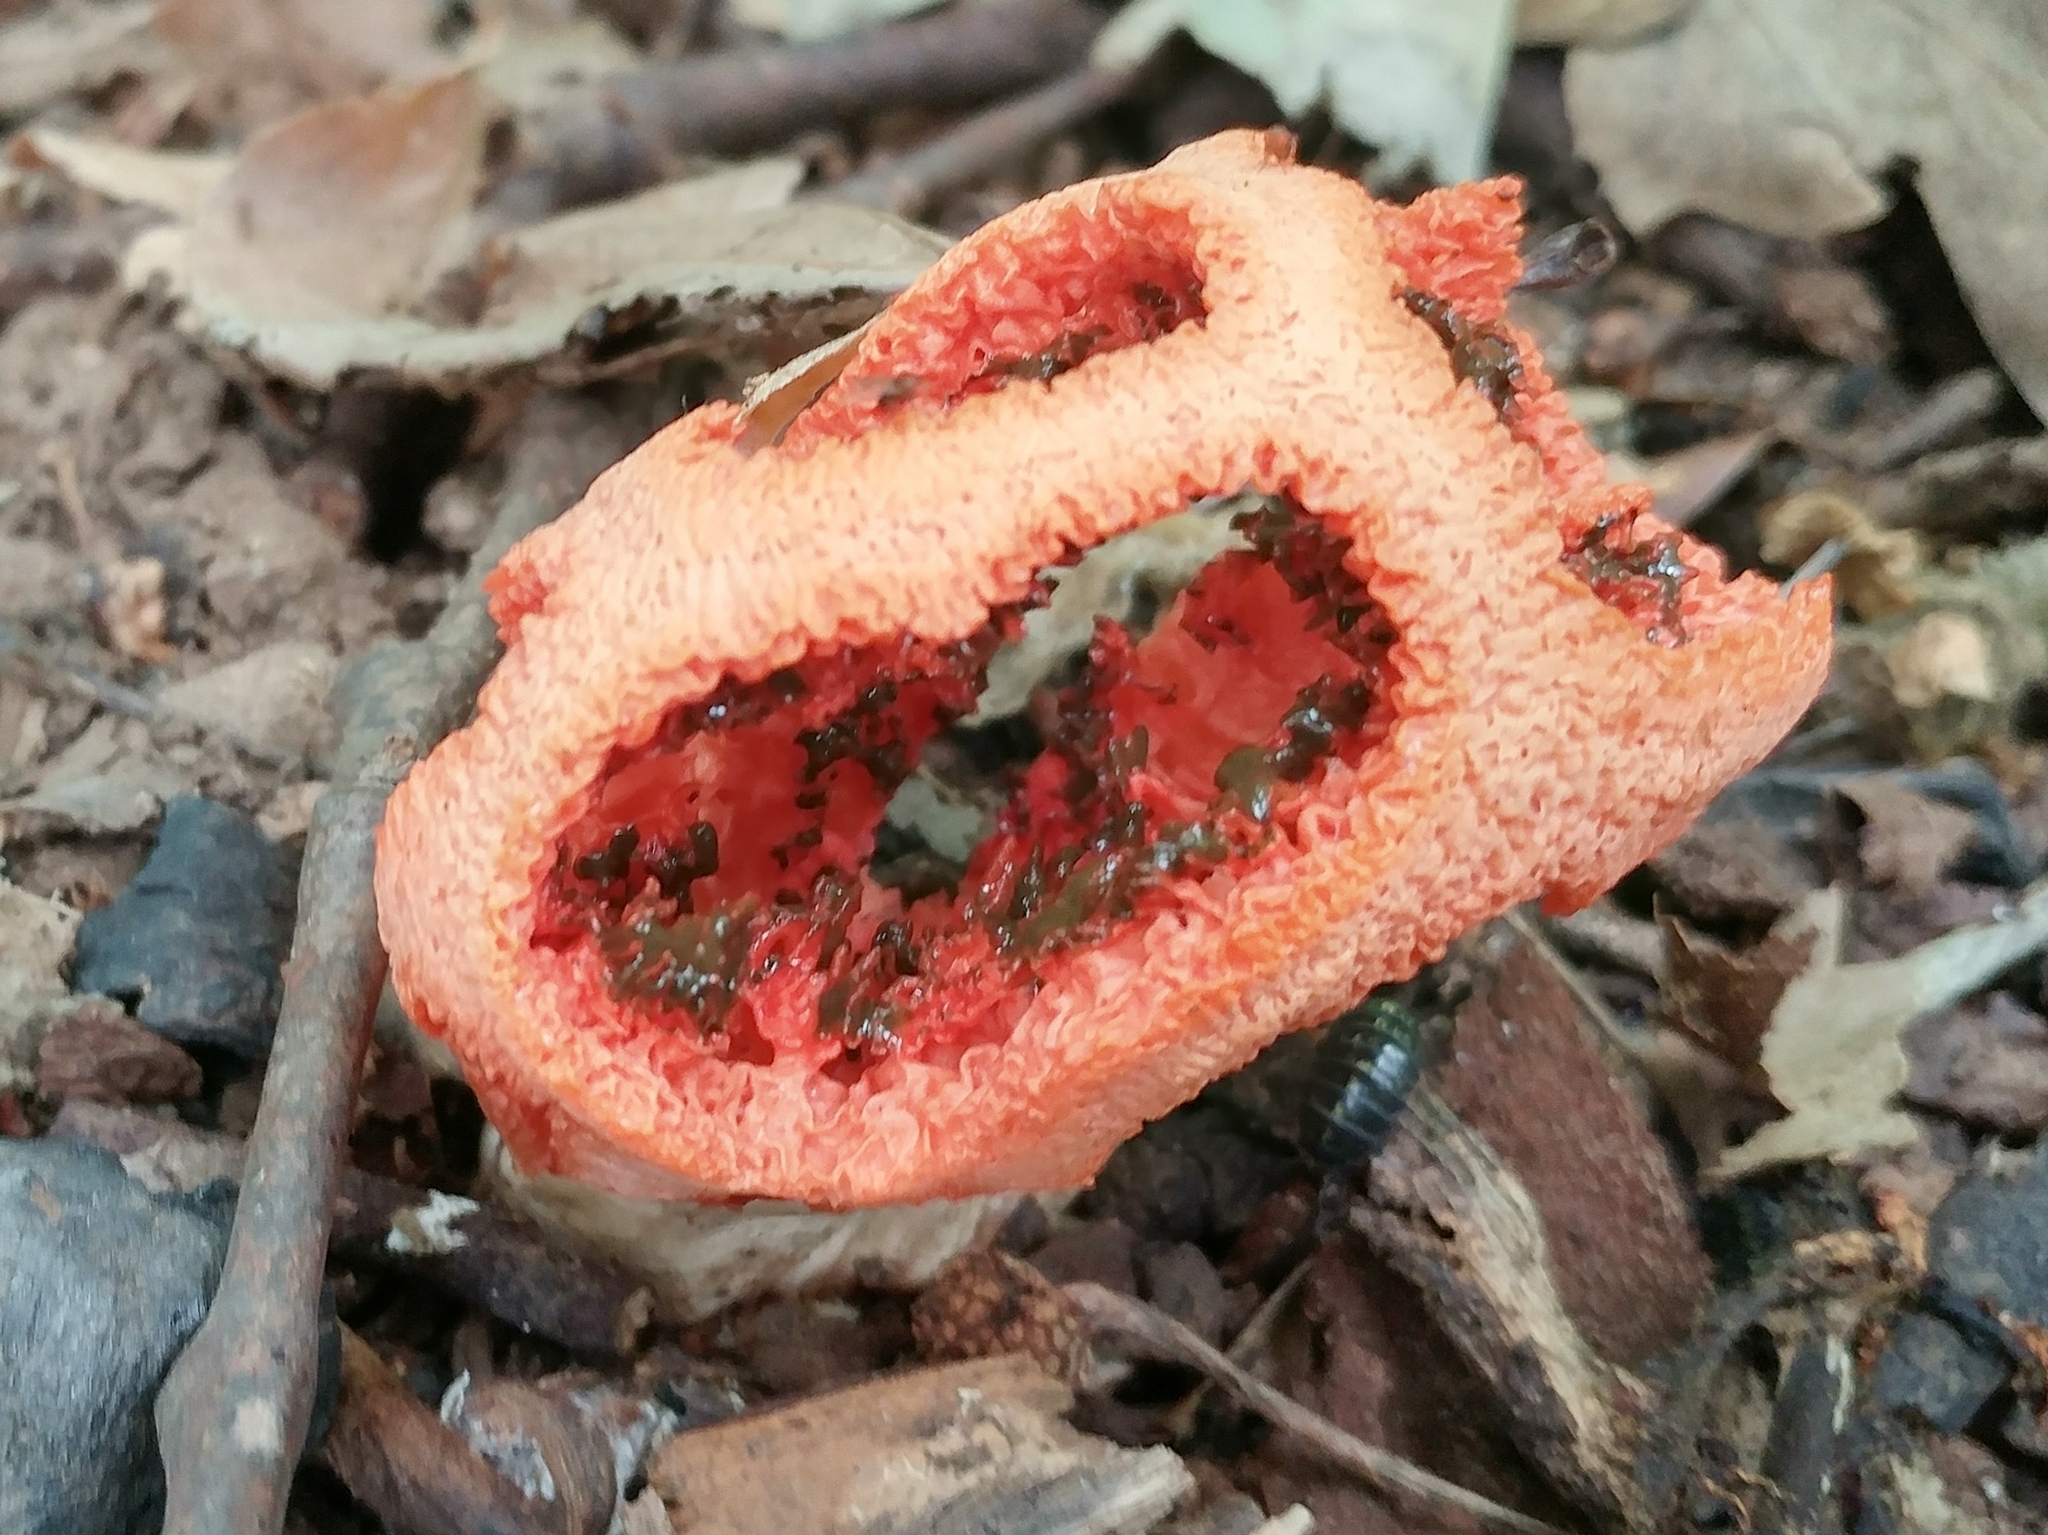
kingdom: Fungi
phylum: Basidiomycota
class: Agaricomycetes
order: Phallales
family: Phallaceae
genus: Clathrus
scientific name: Clathrus ruber
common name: Red cage
